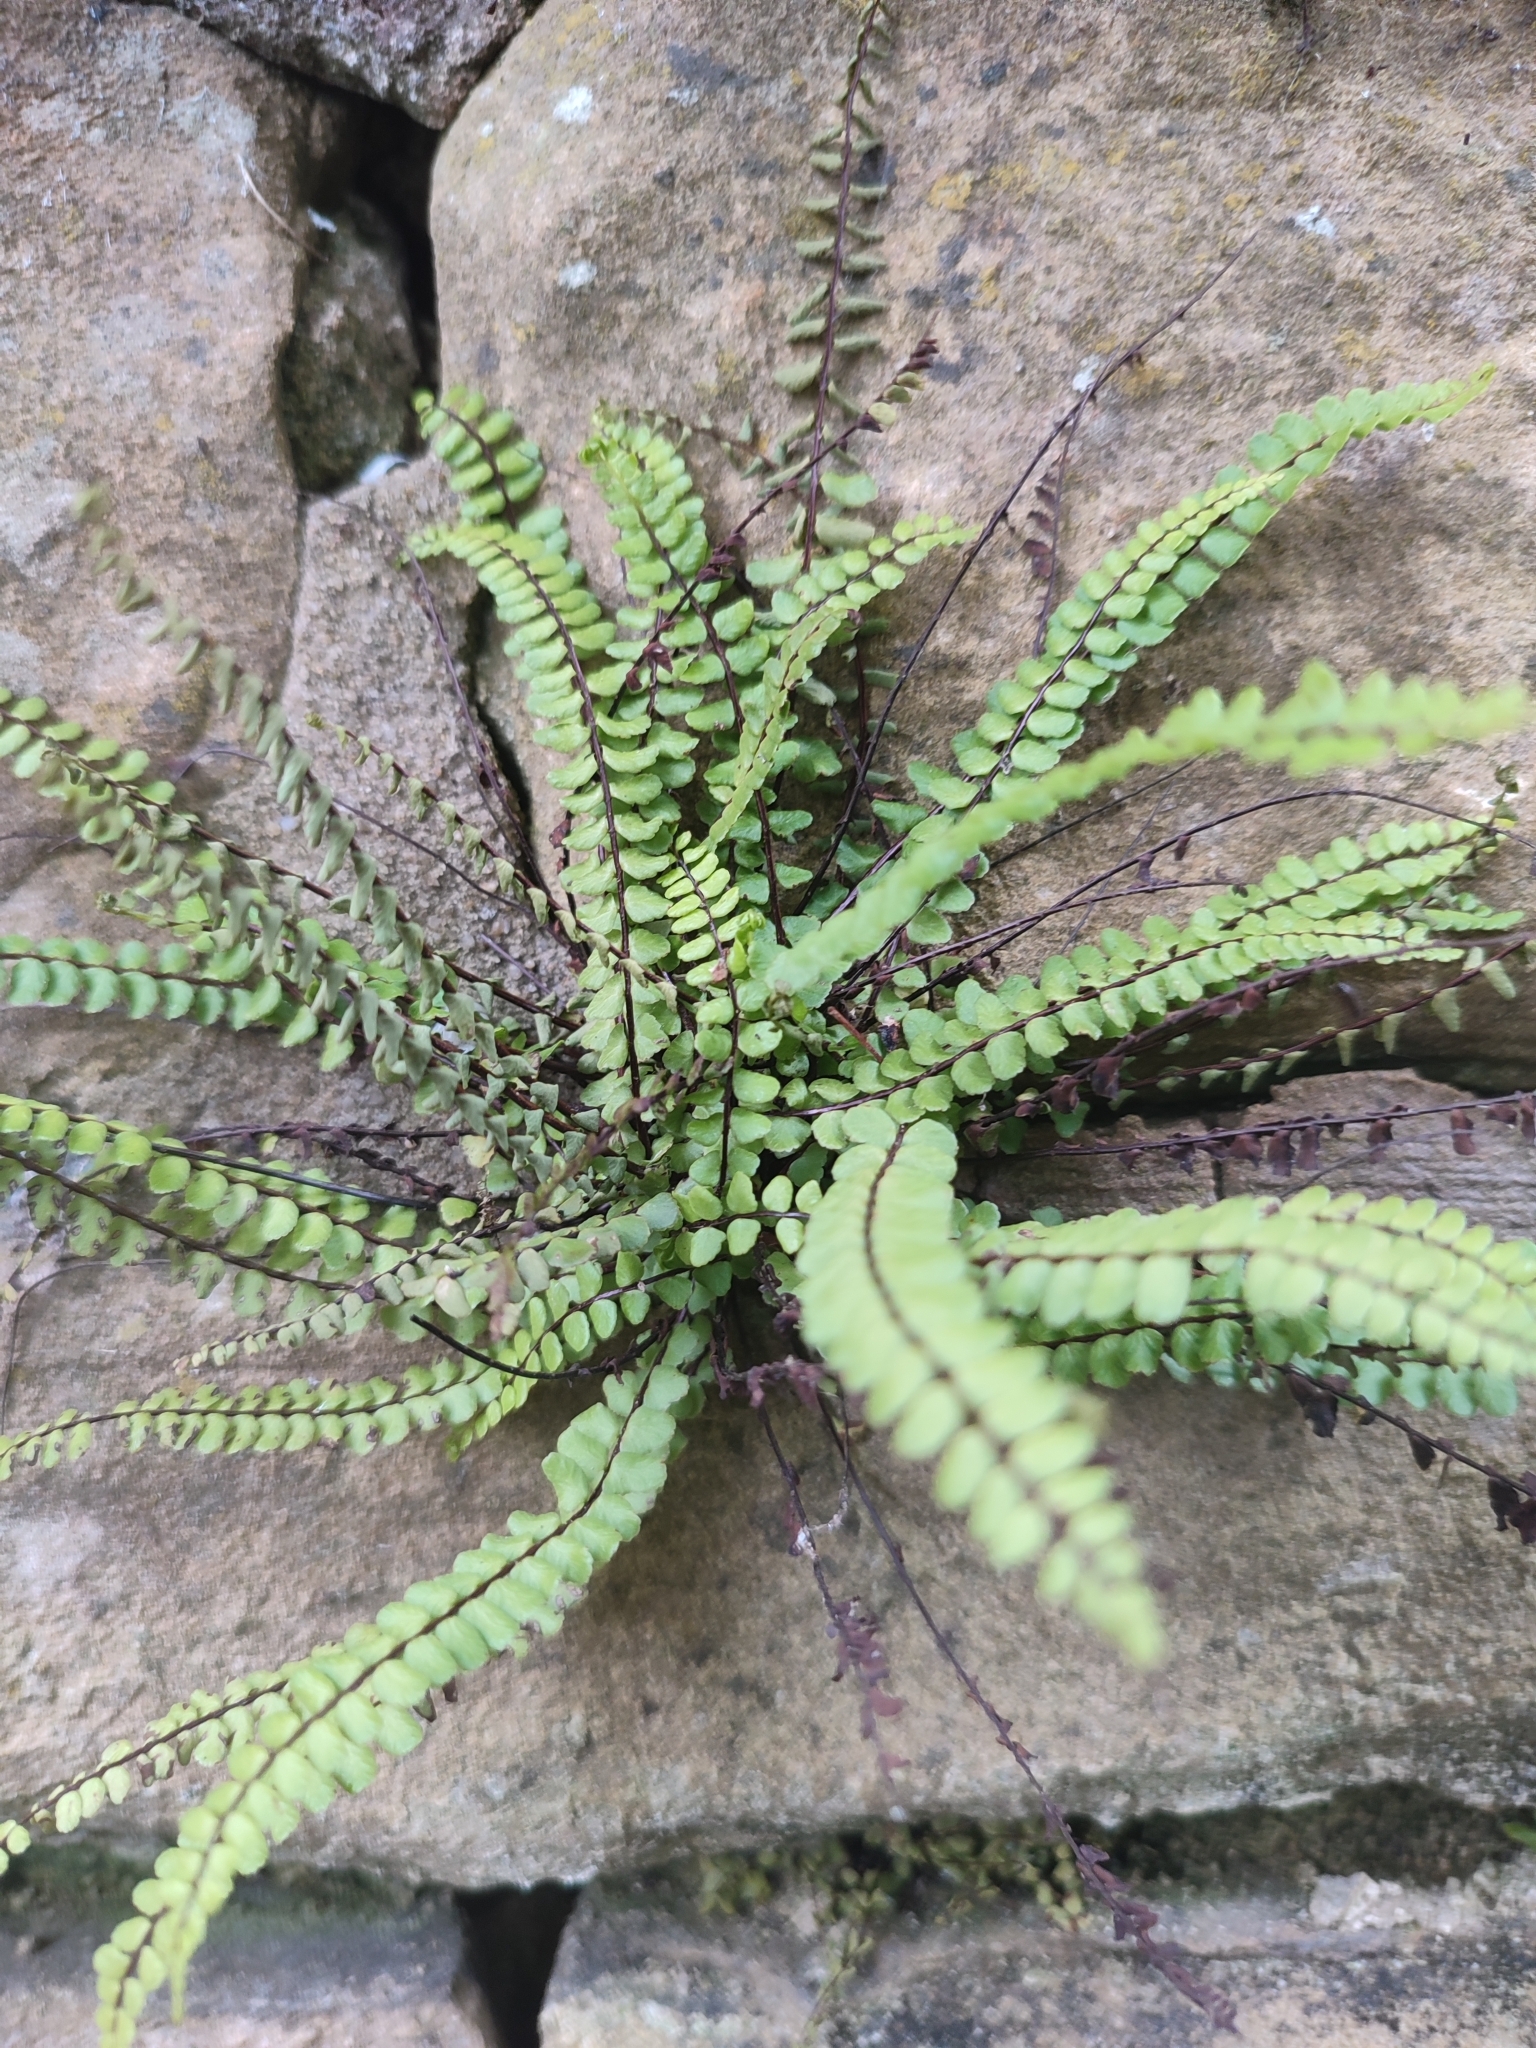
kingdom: Plantae
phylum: Tracheophyta
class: Polypodiopsida
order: Polypodiales
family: Aspleniaceae
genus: Asplenium
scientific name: Asplenium trichomanes
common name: Maidenhair spleenwort
